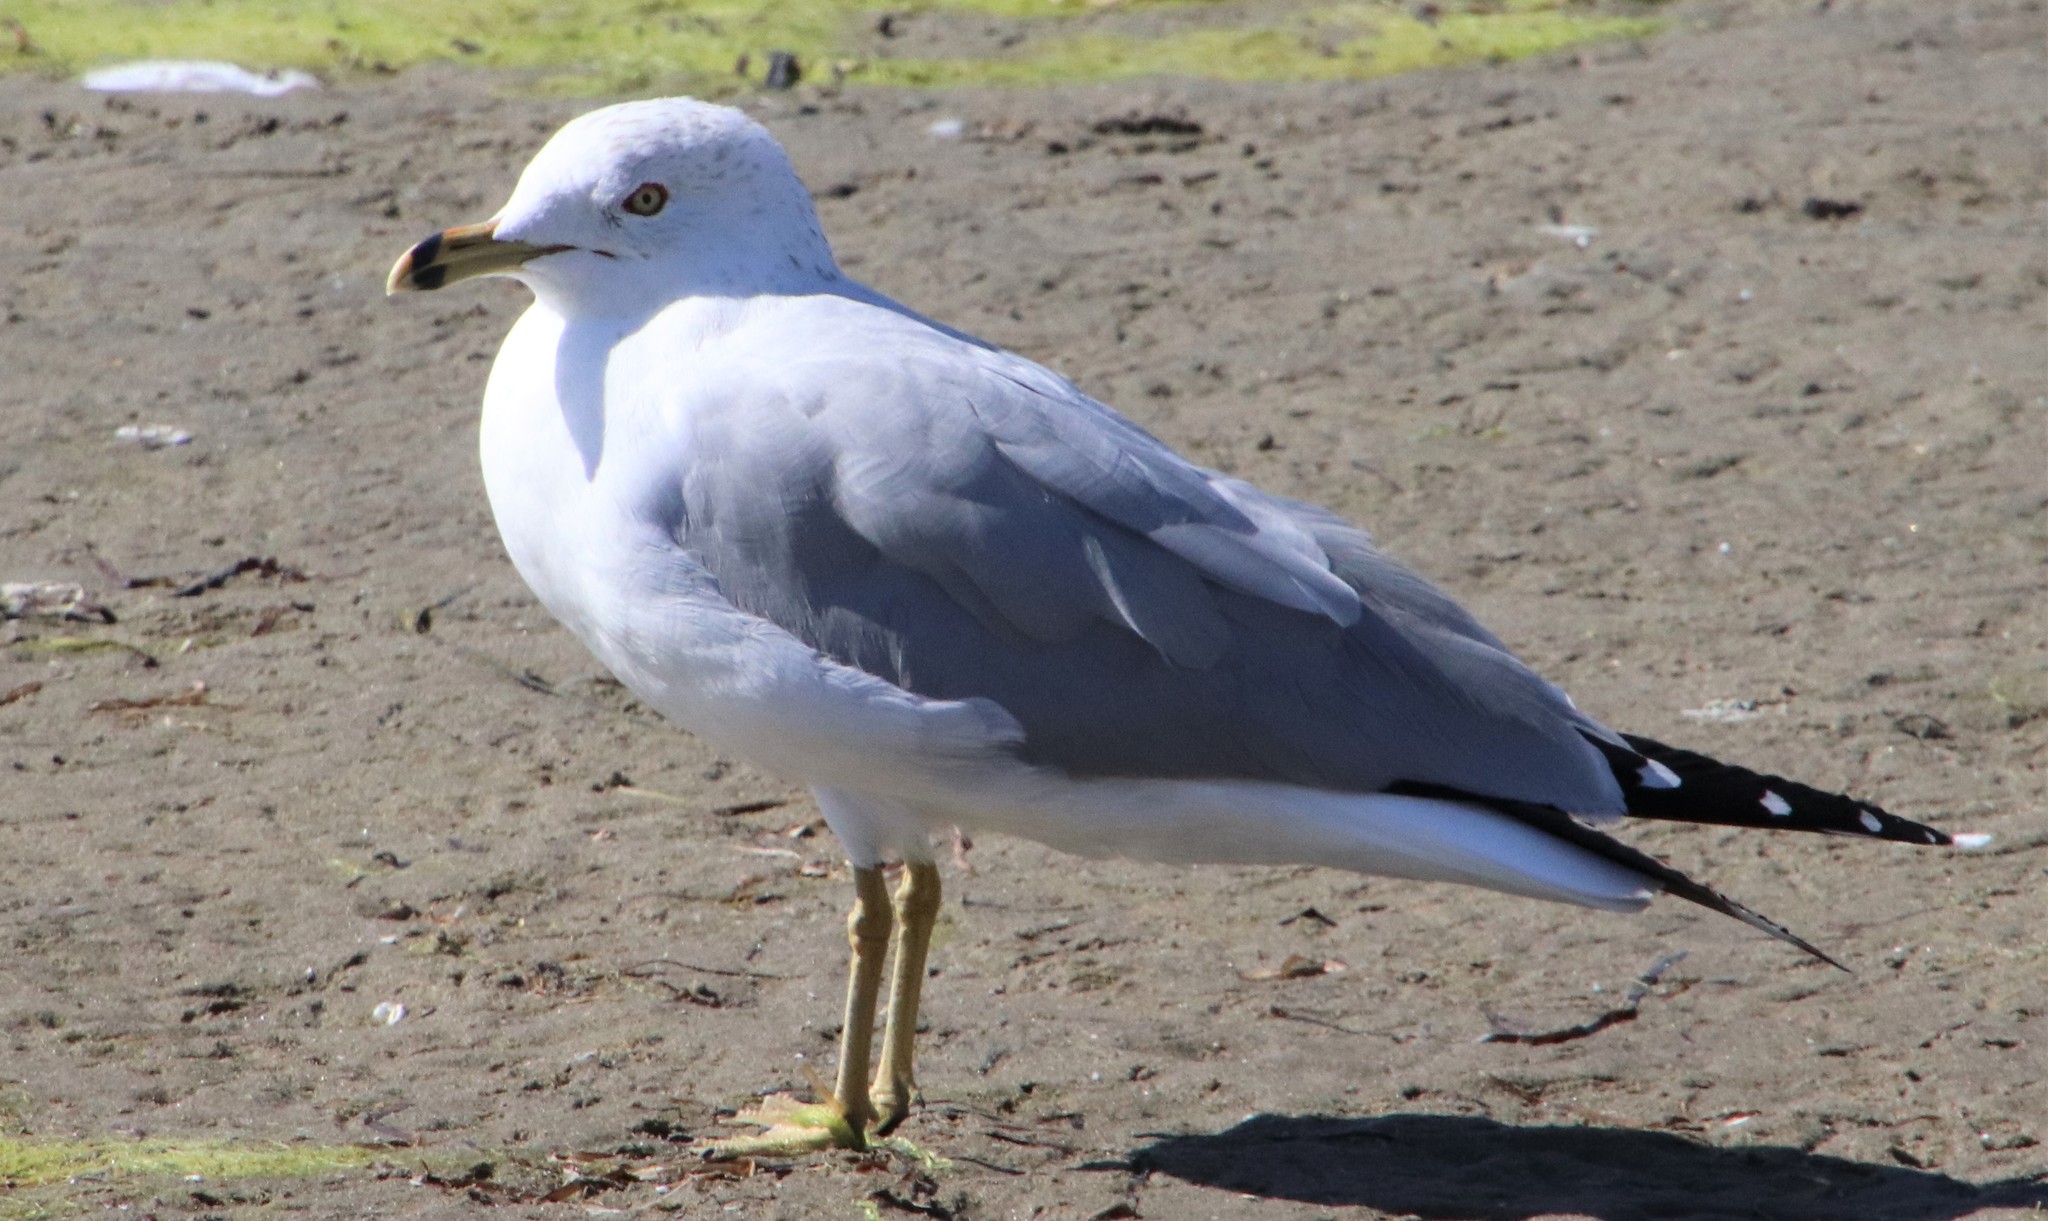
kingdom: Animalia
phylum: Chordata
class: Aves
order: Charadriiformes
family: Laridae
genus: Larus
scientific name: Larus delawarensis
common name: Ring-billed gull
